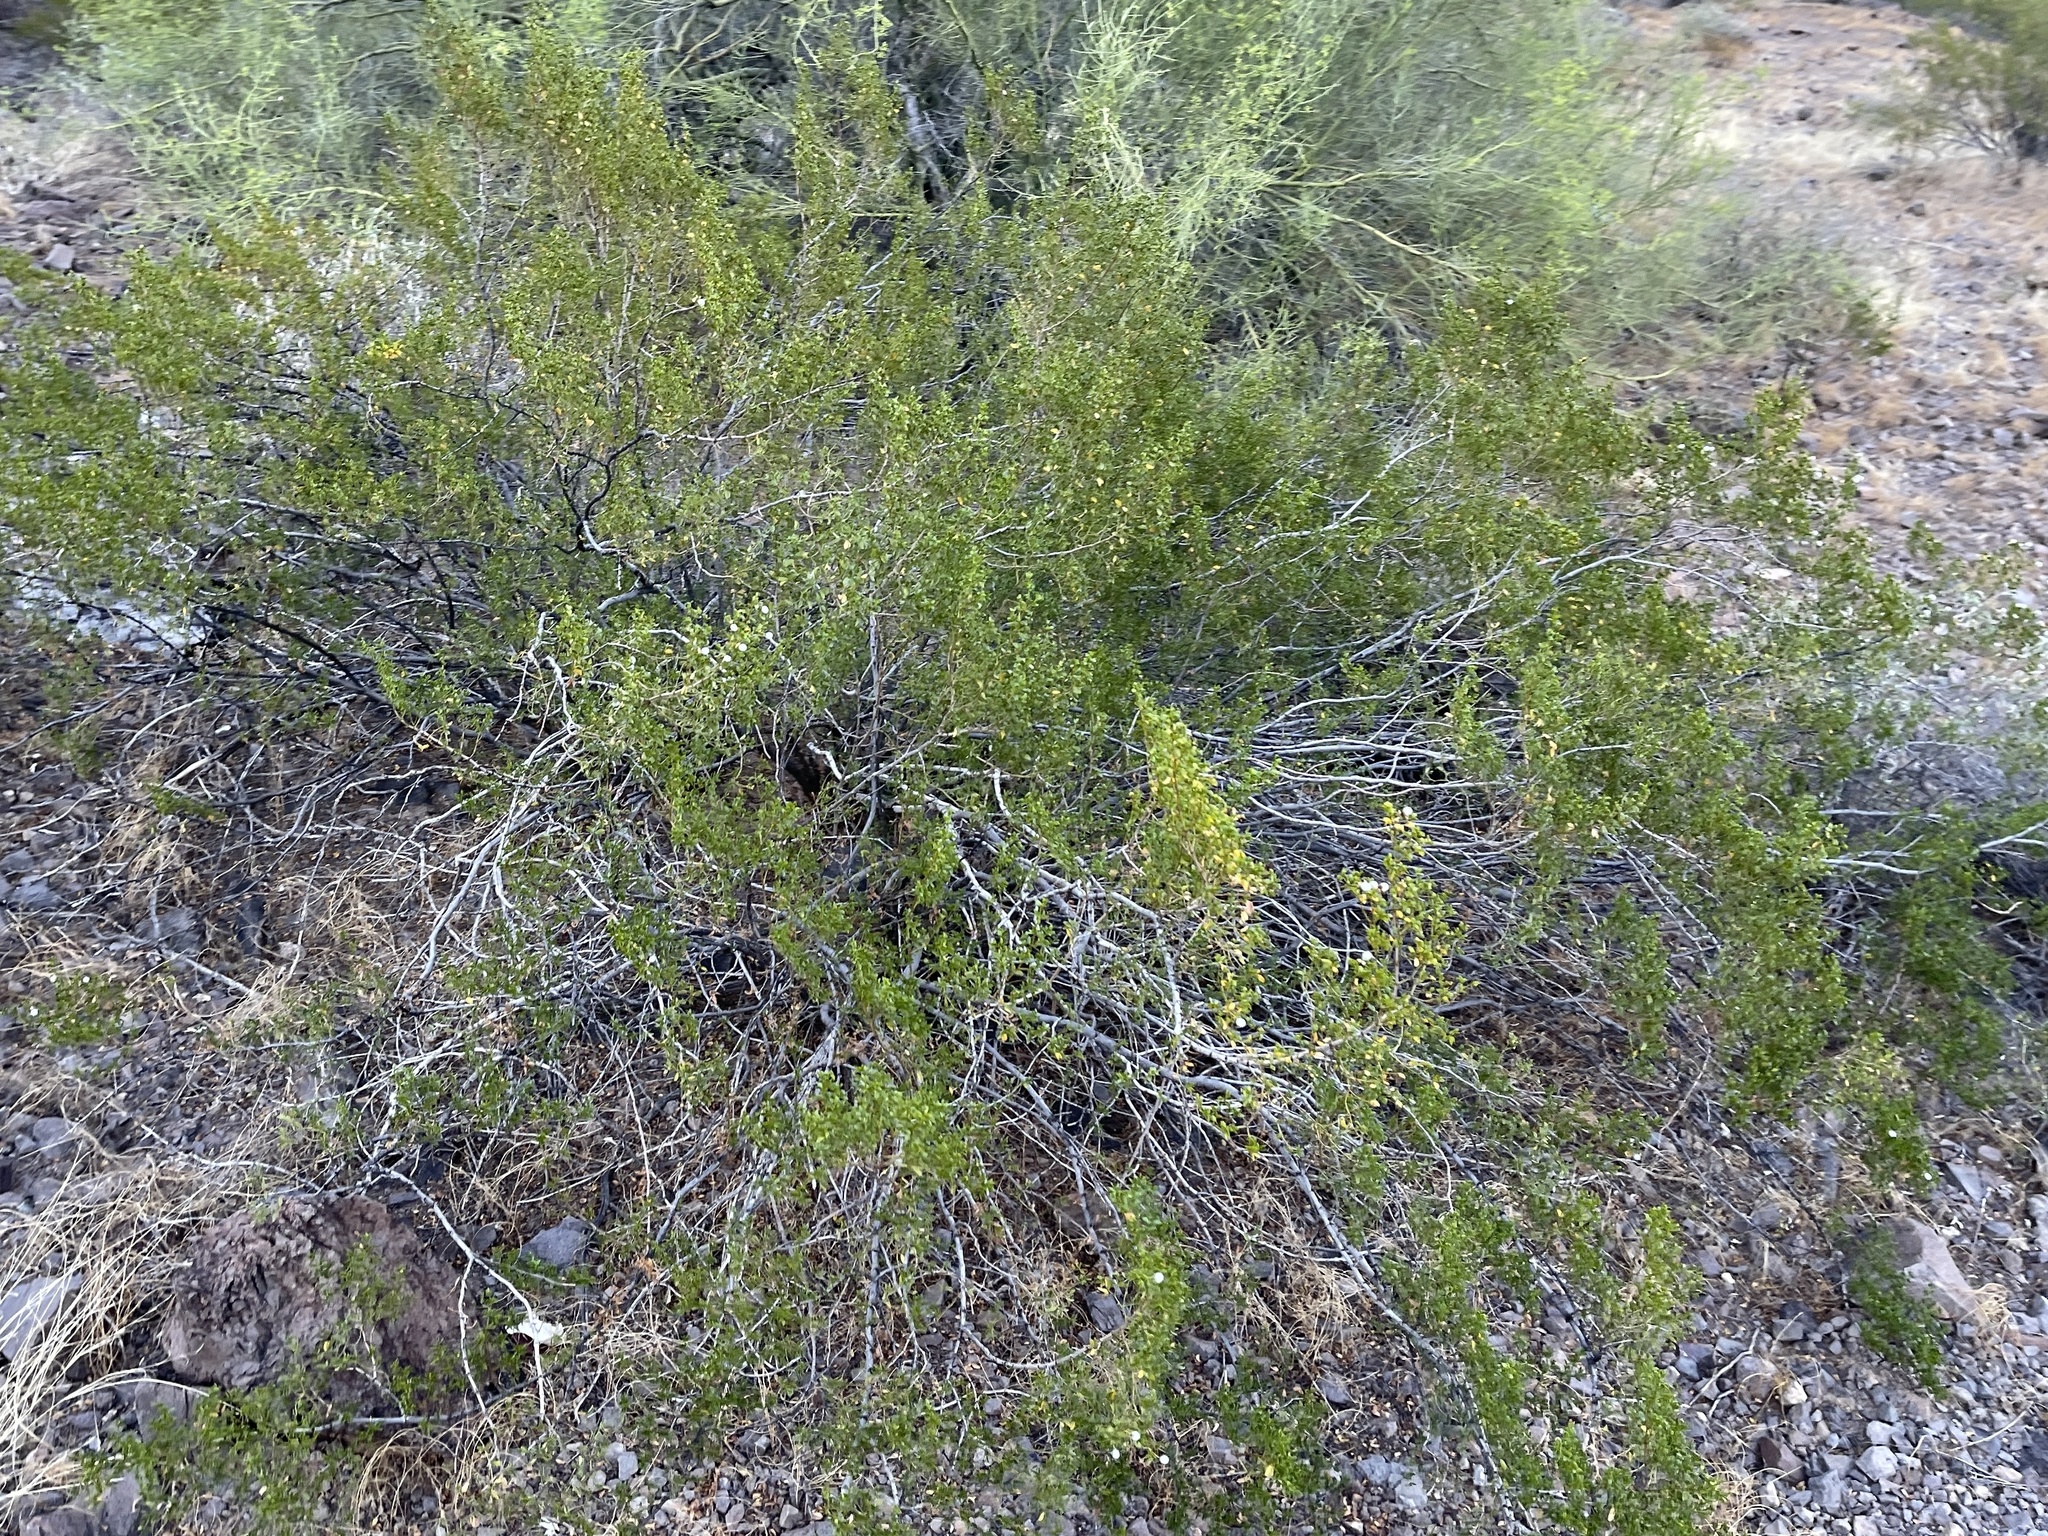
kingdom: Plantae
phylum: Tracheophyta
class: Magnoliopsida
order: Zygophyllales
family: Zygophyllaceae
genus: Larrea
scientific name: Larrea tridentata
